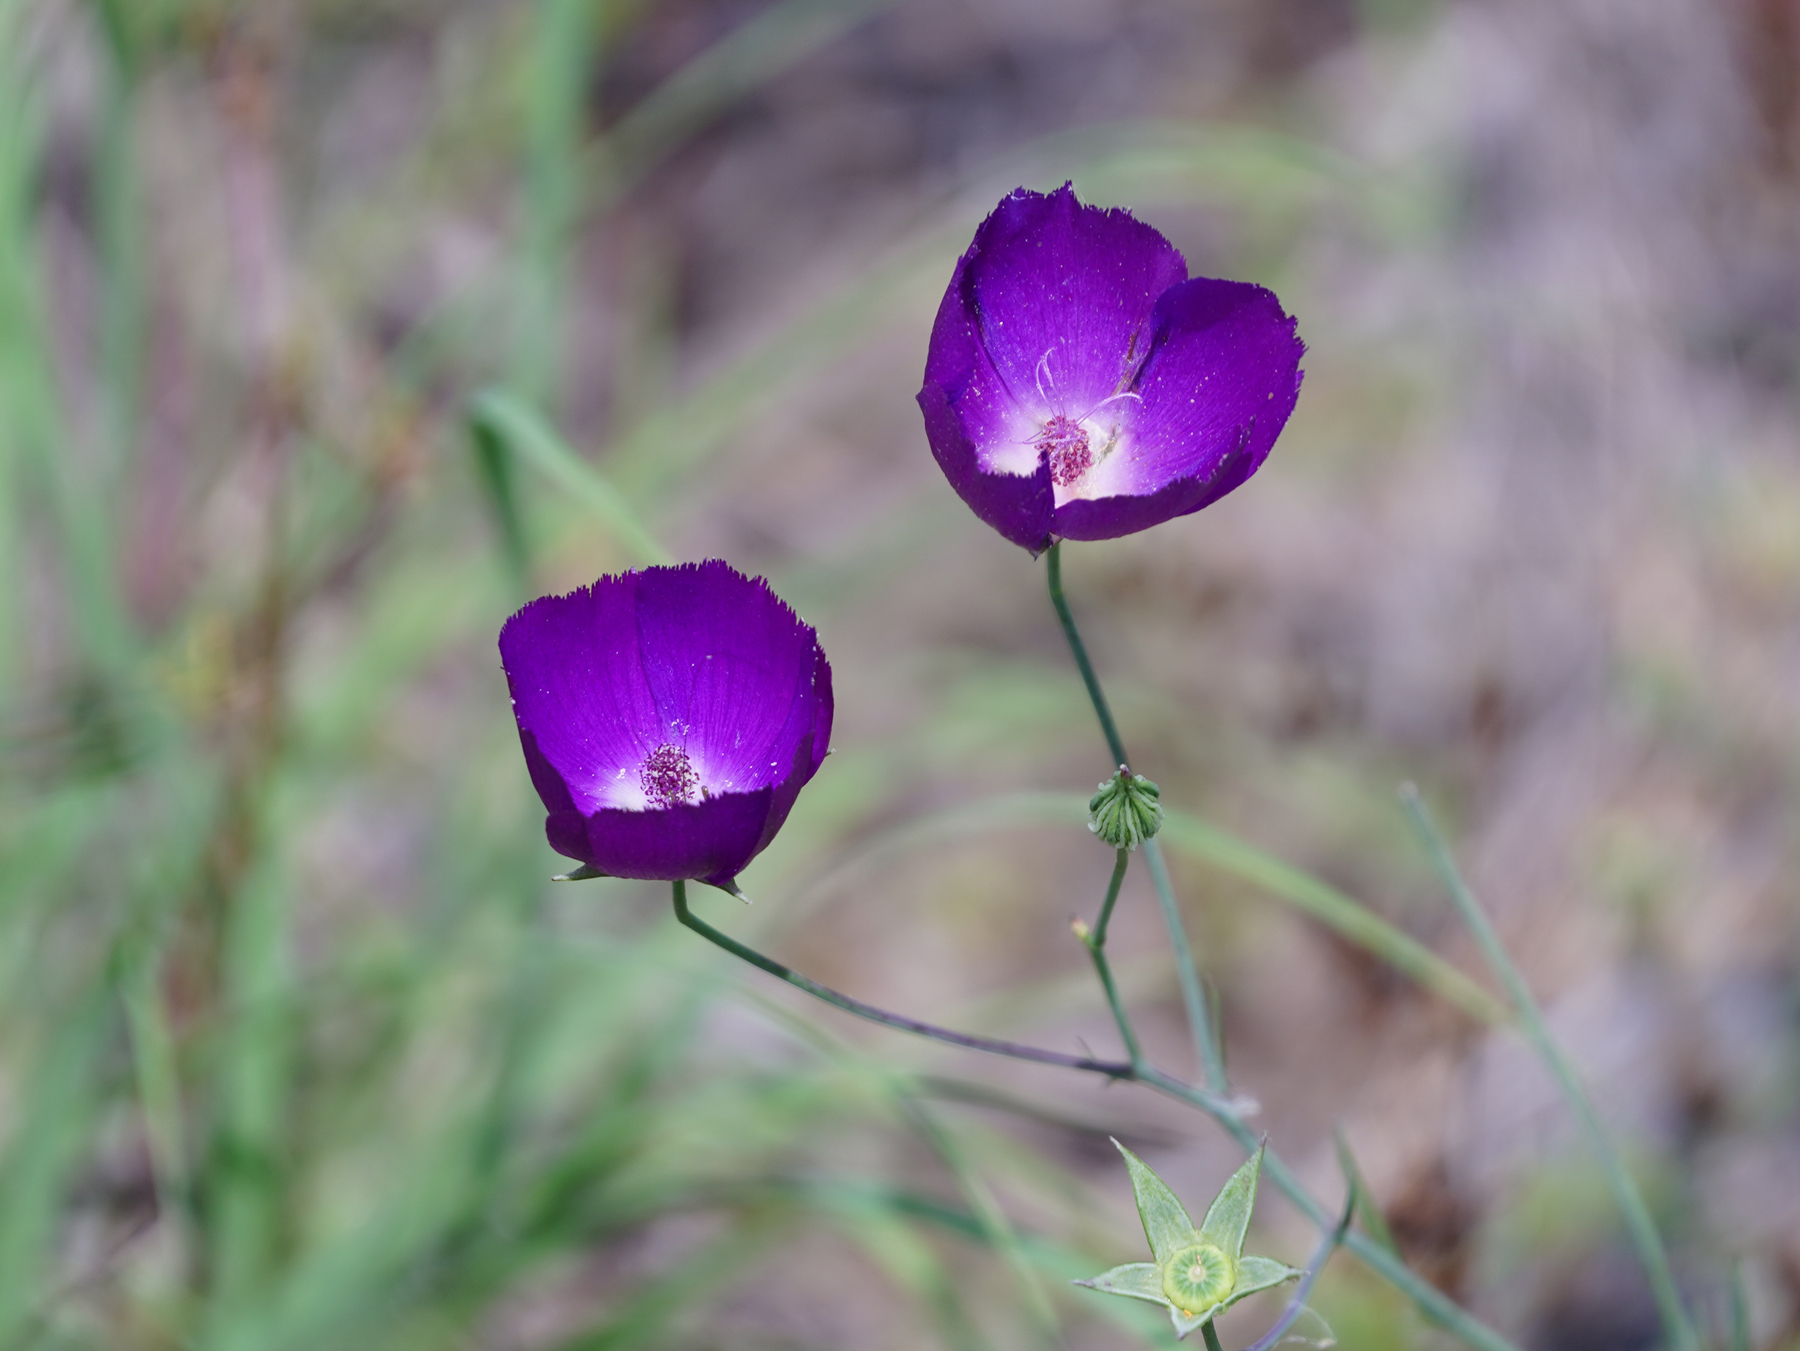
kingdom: Plantae
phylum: Tracheophyta
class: Magnoliopsida
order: Malvales
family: Malvaceae
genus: Callirhoe
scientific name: Callirhoe pedata
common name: Finger poppy-mallow
